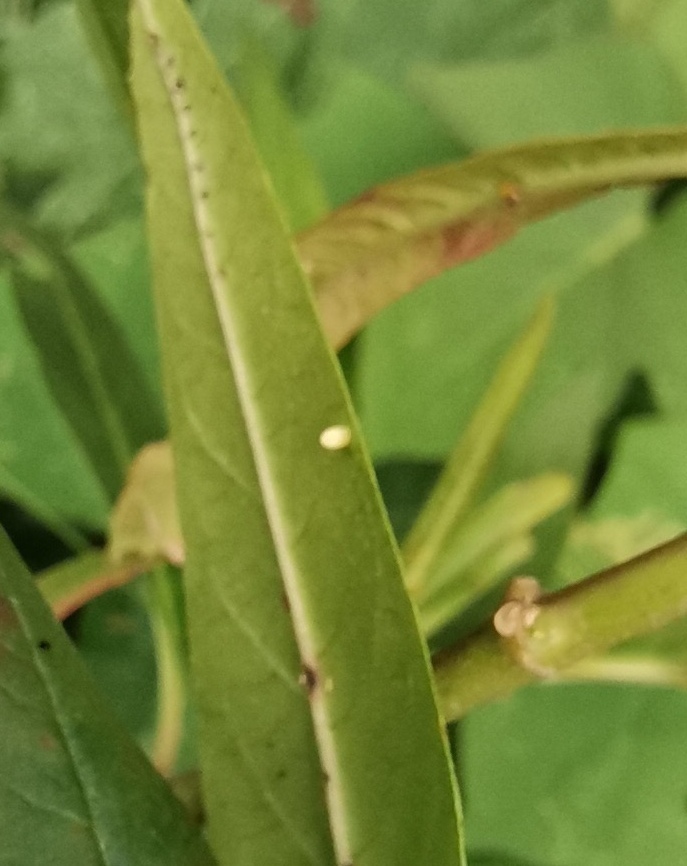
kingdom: Plantae
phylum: Tracheophyta
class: Magnoliopsida
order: Gentianales
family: Apocynaceae
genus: Asclepias
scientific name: Asclepias curassavica
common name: Bloodflower
